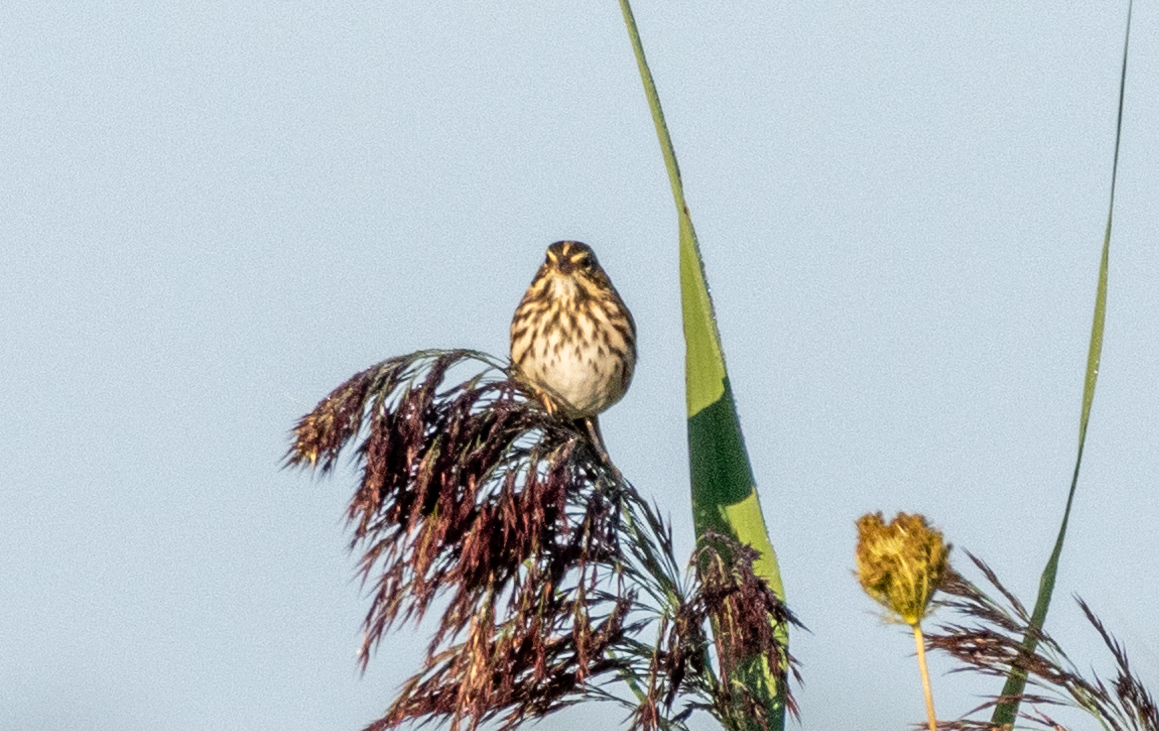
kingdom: Animalia
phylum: Chordata
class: Aves
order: Passeriformes
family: Passerellidae
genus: Passerculus
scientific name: Passerculus sandwichensis
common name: Savannah sparrow
